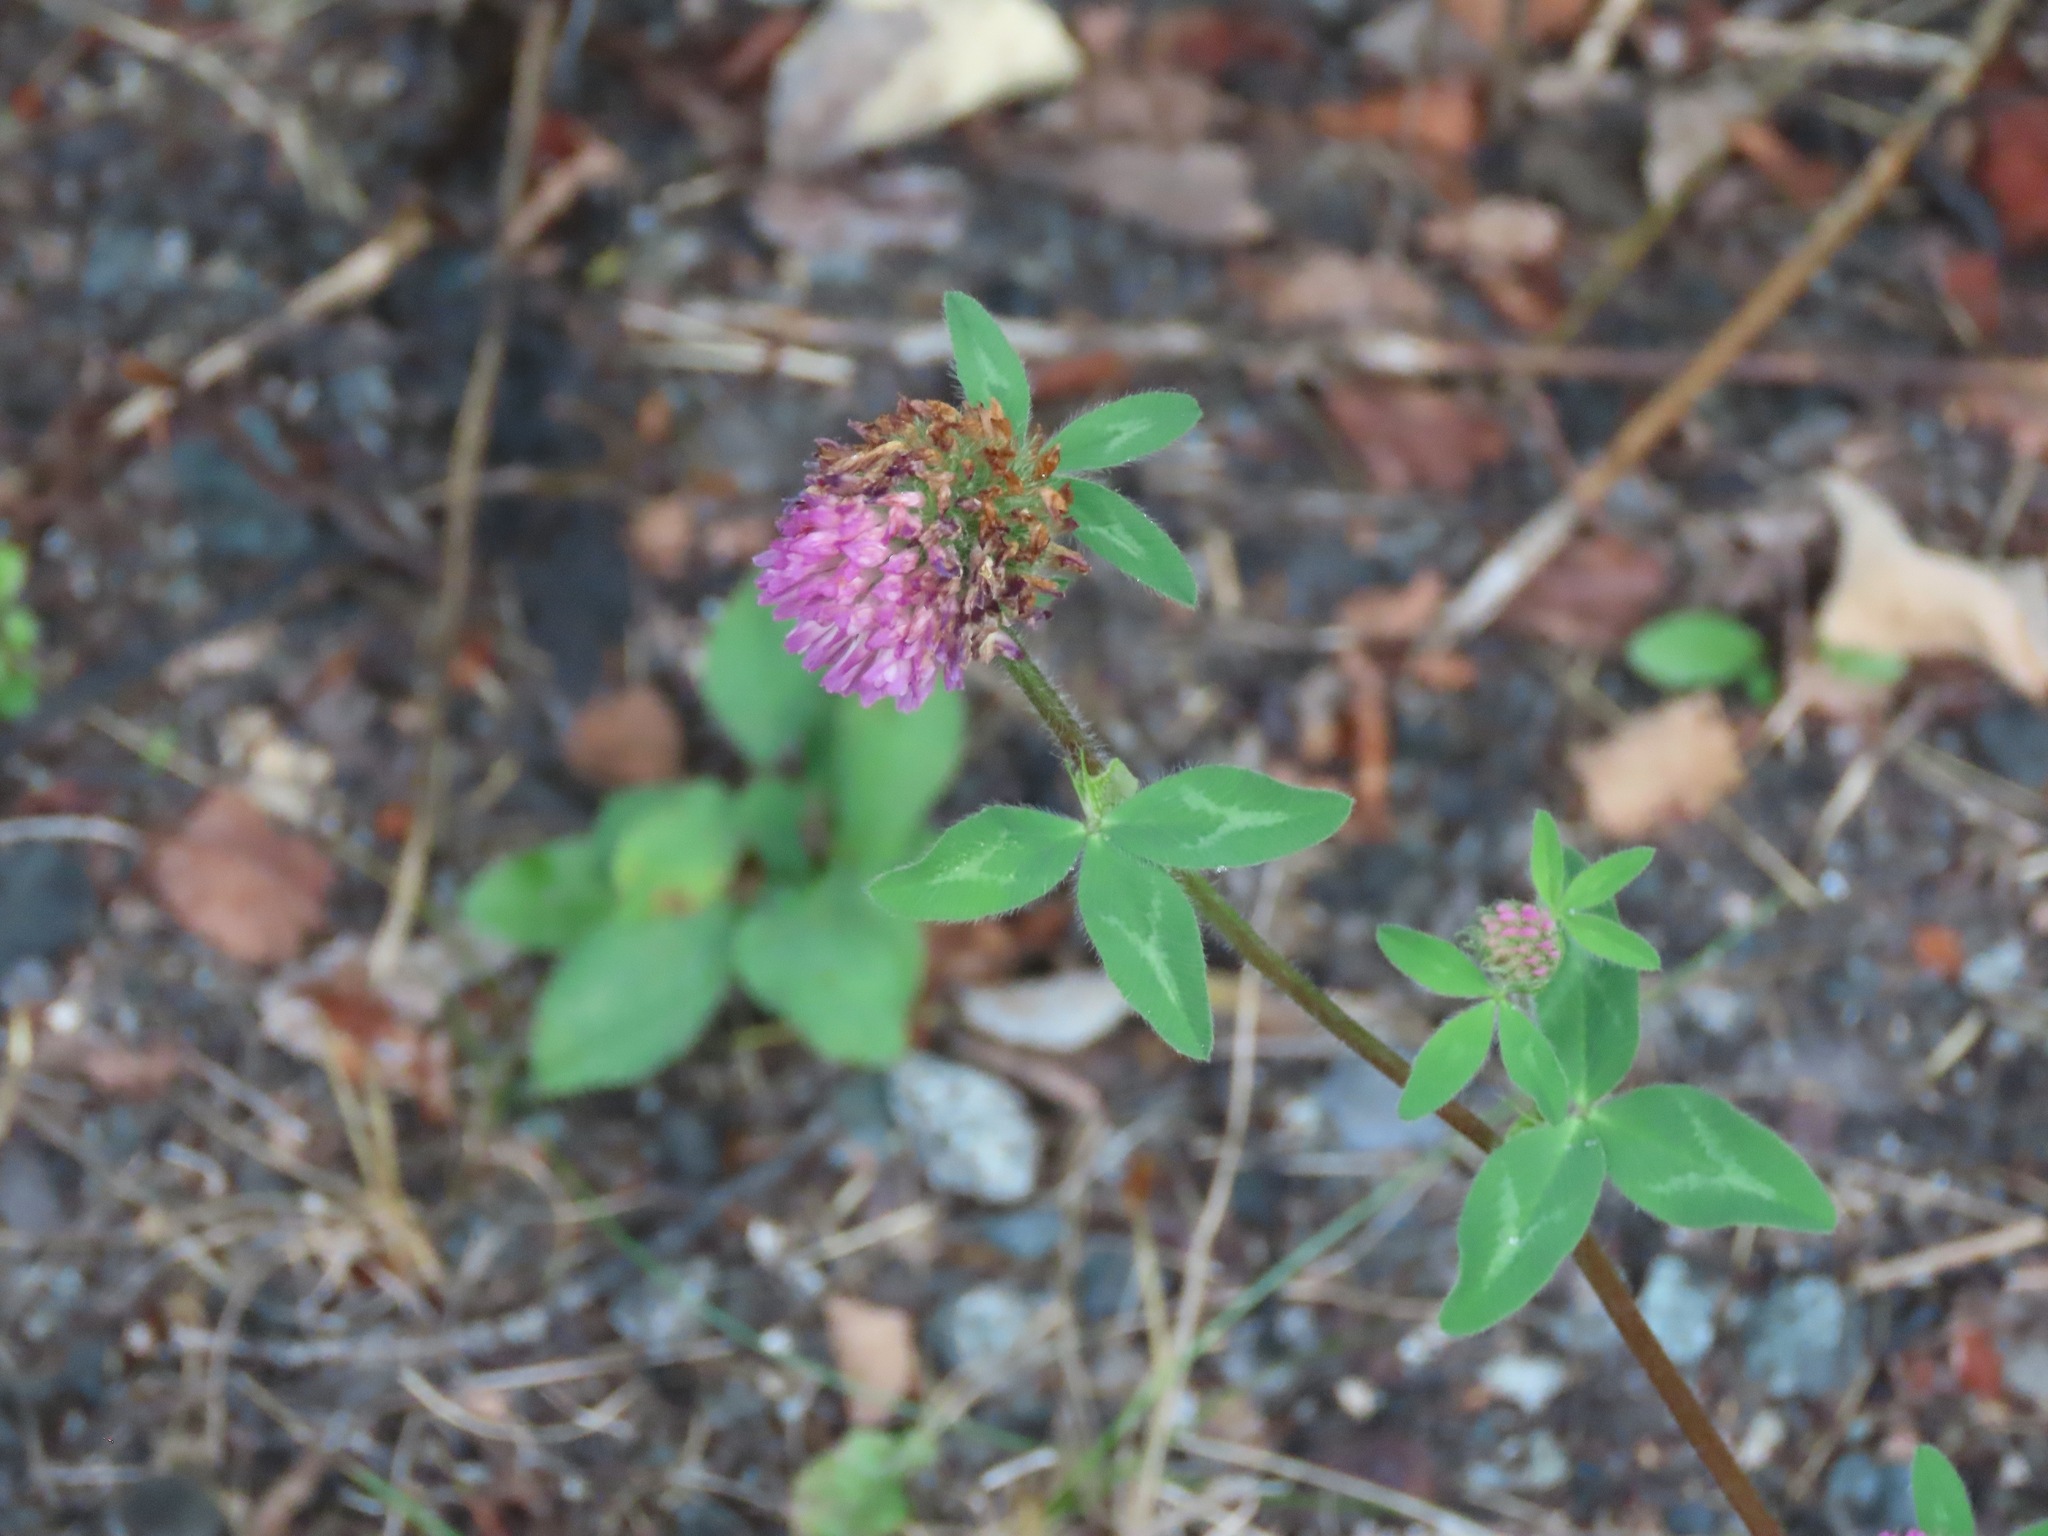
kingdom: Plantae
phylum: Tracheophyta
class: Magnoliopsida
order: Fabales
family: Fabaceae
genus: Trifolium
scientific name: Trifolium pratense
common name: Red clover
